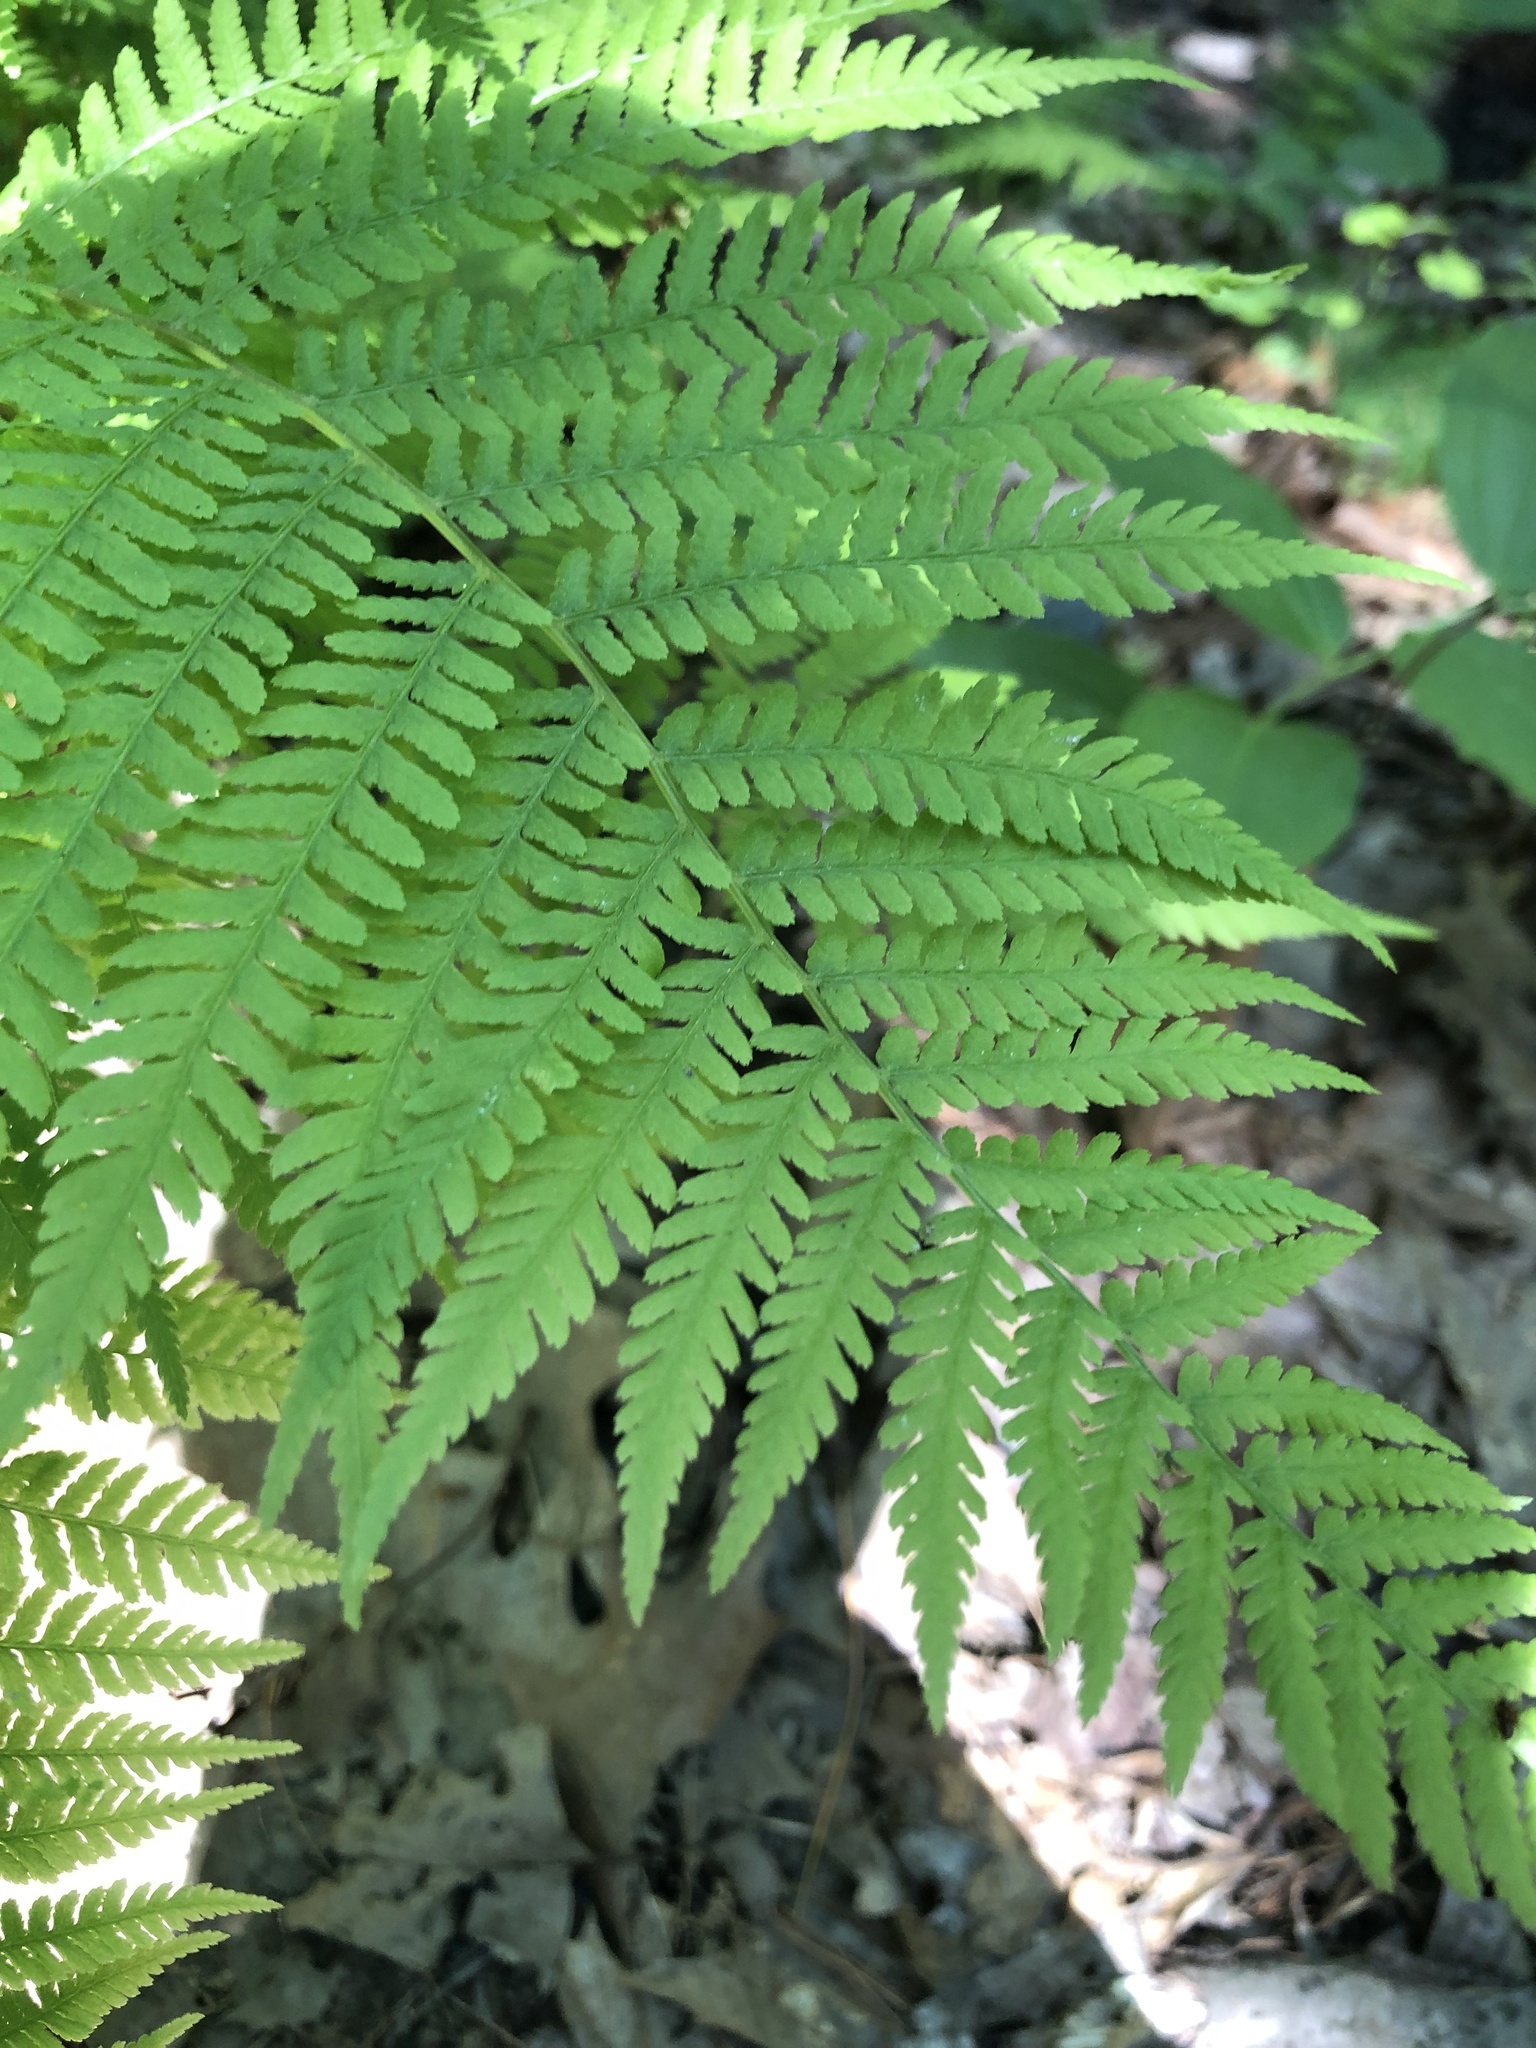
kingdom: Plantae
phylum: Tracheophyta
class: Polypodiopsida
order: Polypodiales
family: Athyriaceae
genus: Athyrium
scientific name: Athyrium angustum
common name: Northern lady fern
